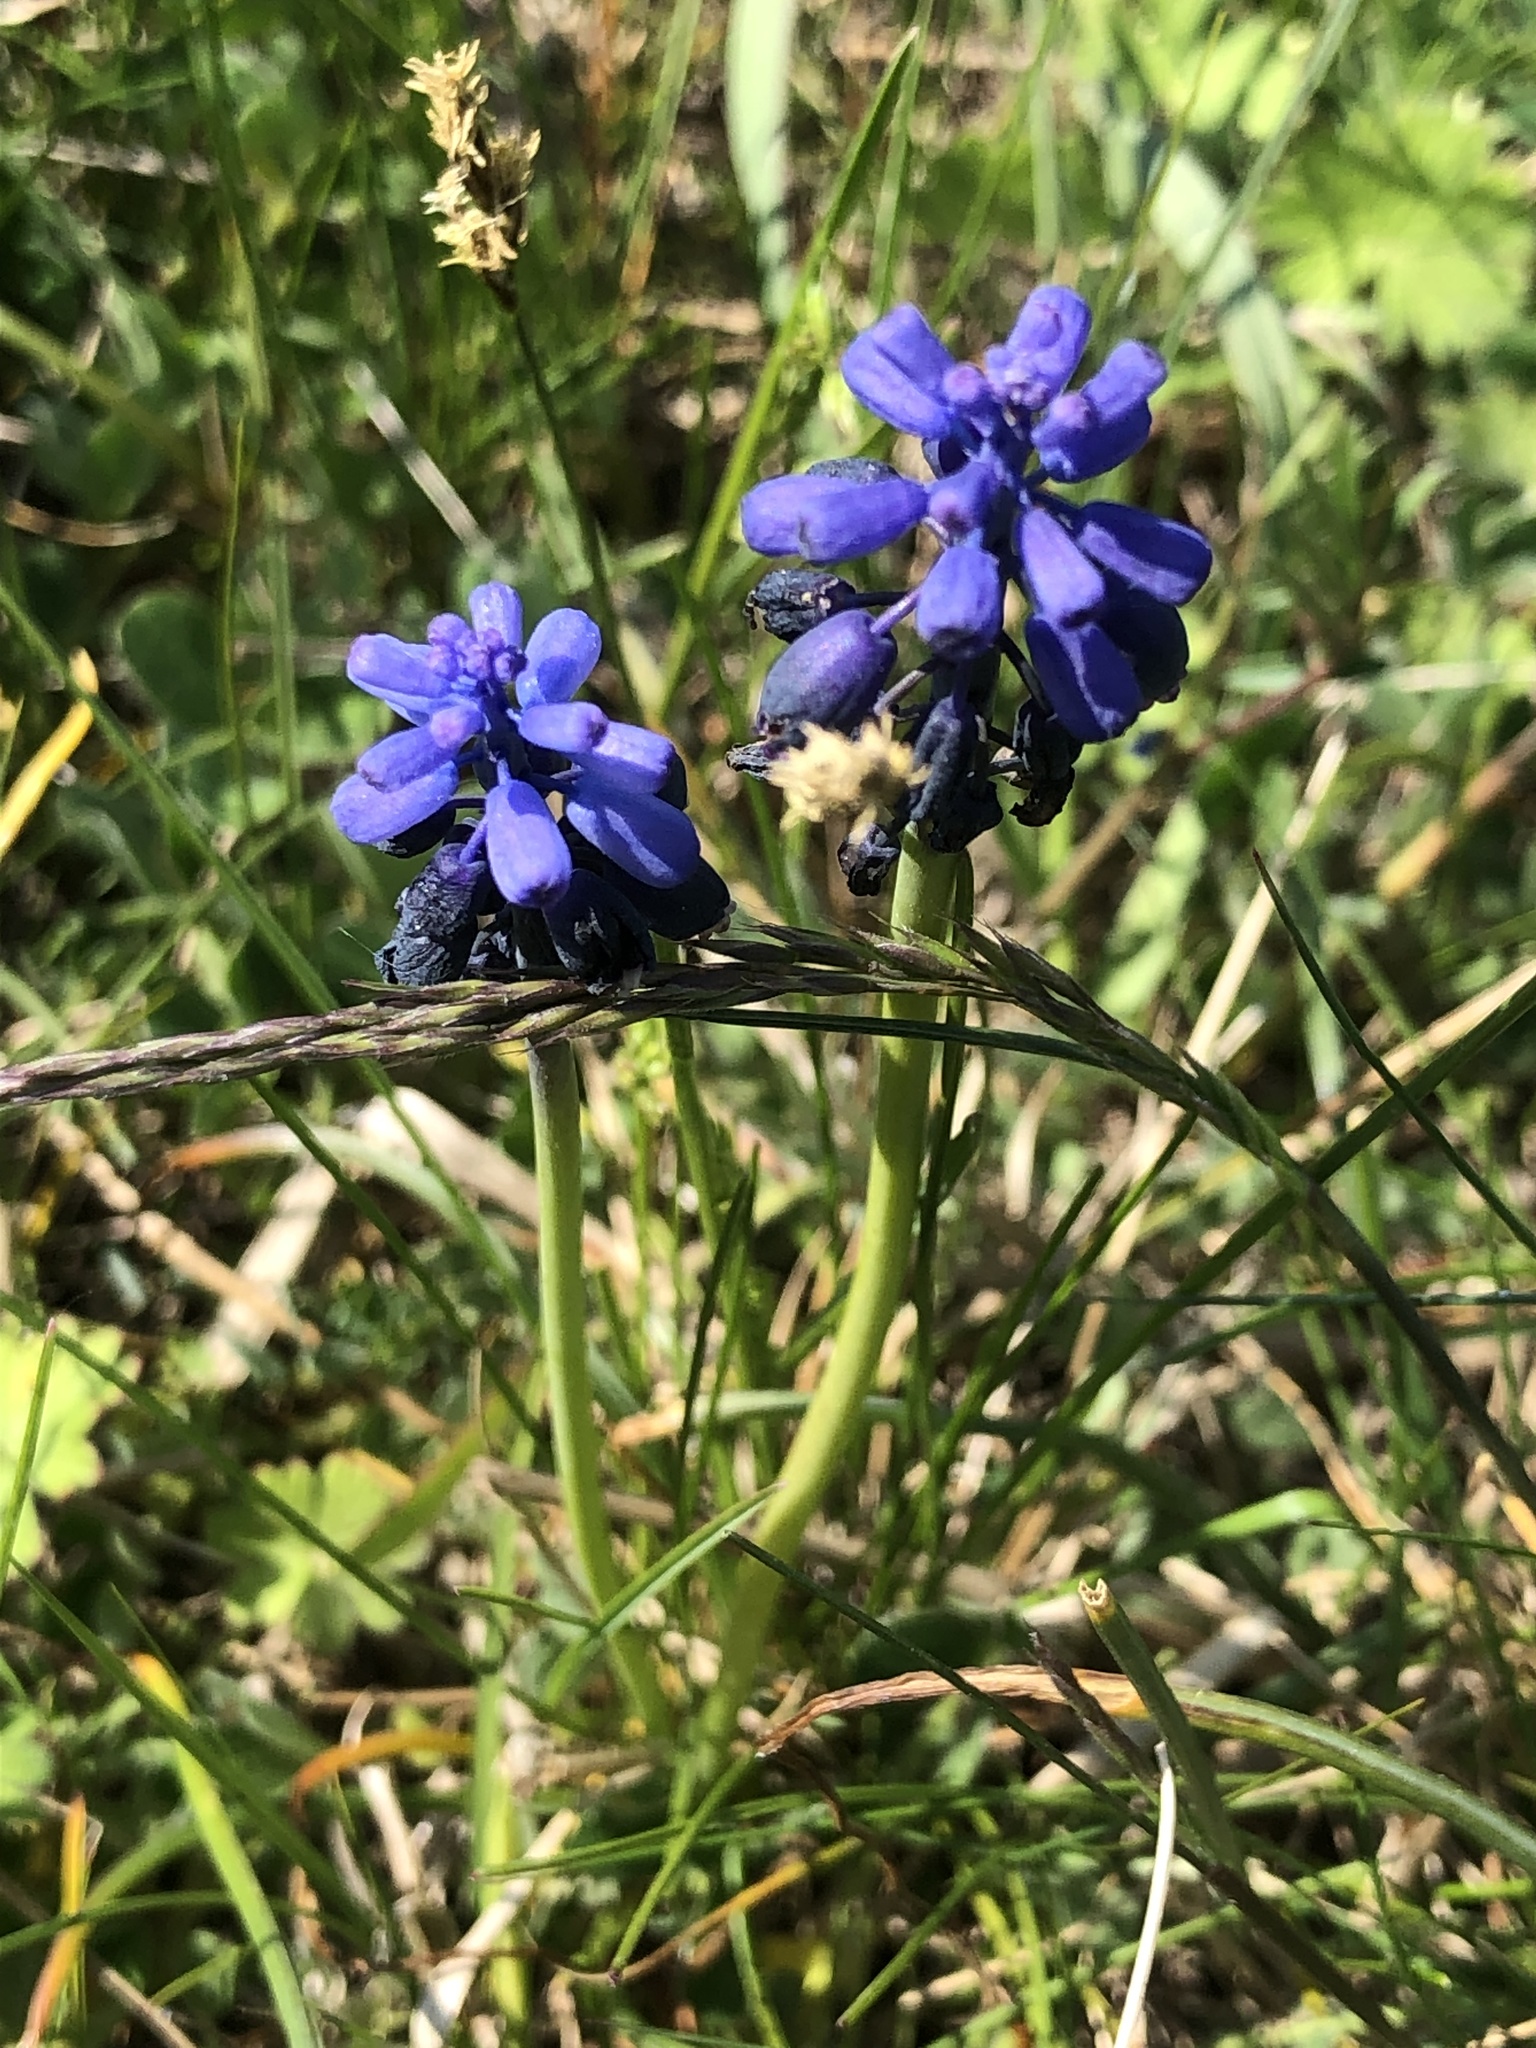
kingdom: Plantae
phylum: Tracheophyta
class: Liliopsida
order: Asparagales
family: Asparagaceae
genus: Muscari
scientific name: Muscari neglectum
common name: Grape-hyacinth
